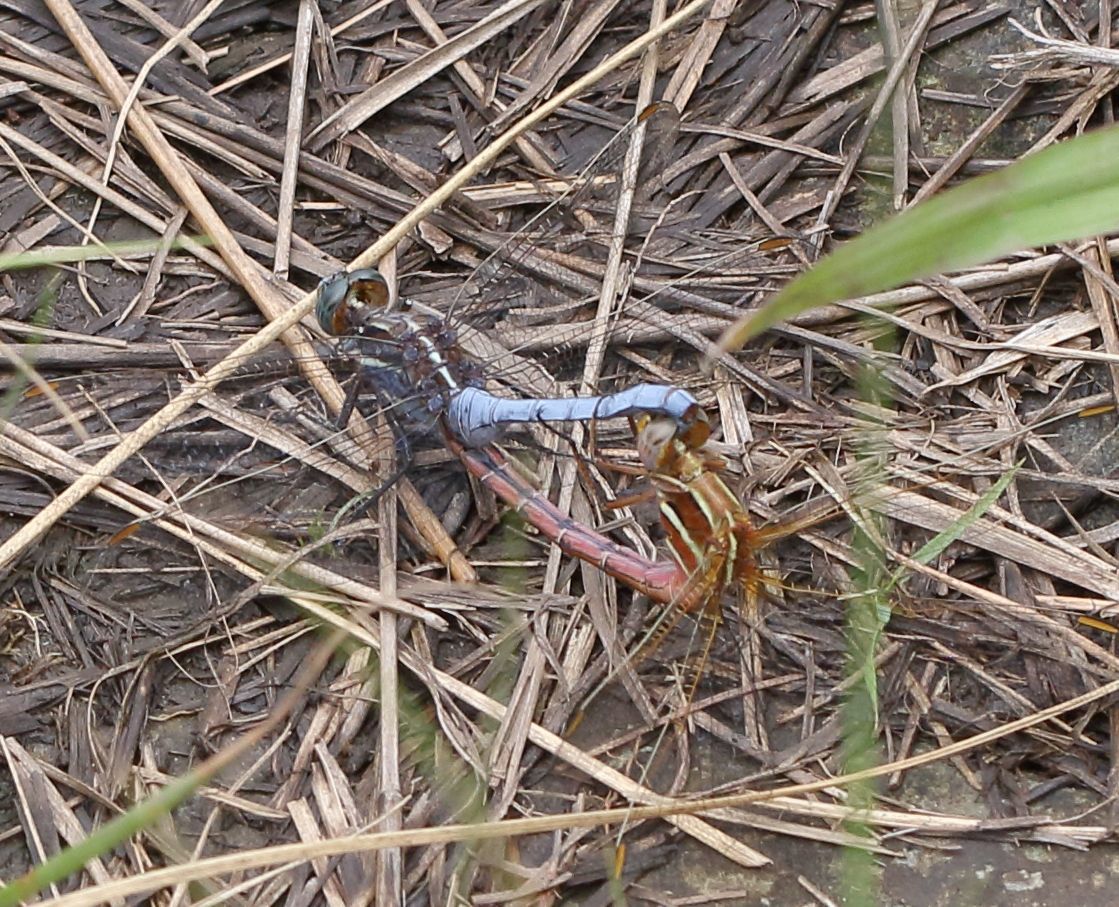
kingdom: Animalia
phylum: Arthropoda
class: Insecta
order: Odonata
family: Libellulidae
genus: Orthetrum
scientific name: Orthetrum caffrum
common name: Two-striped skimmer
